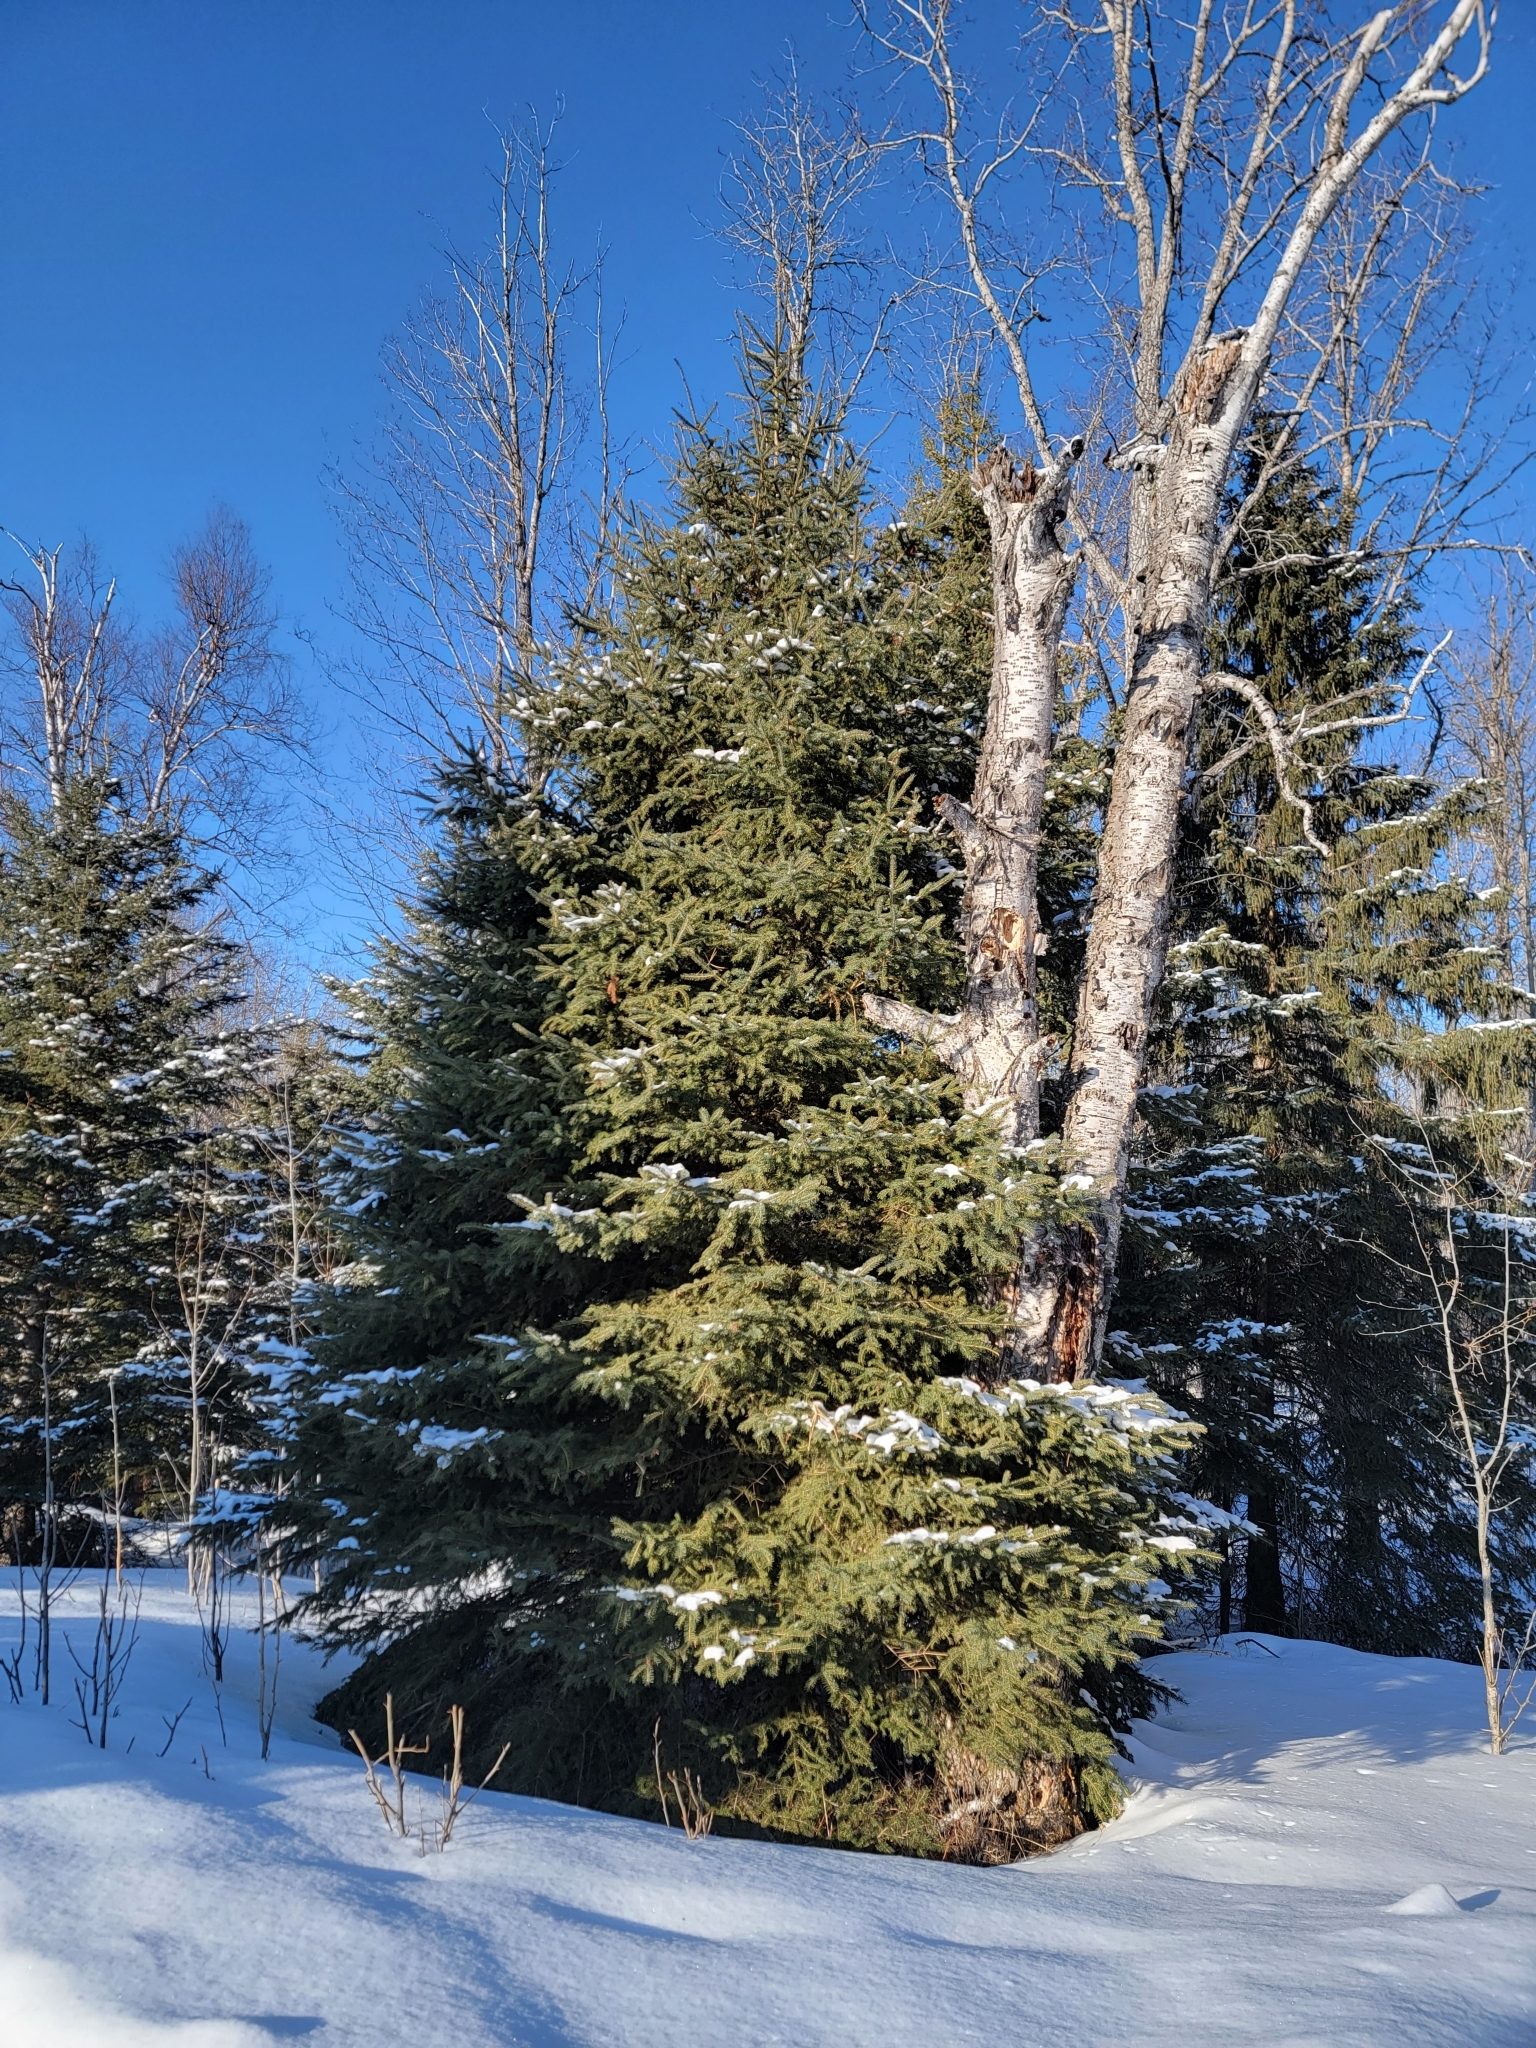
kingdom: Plantae
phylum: Tracheophyta
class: Pinopsida
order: Pinales
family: Pinaceae
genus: Picea
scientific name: Picea glauca
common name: White spruce
